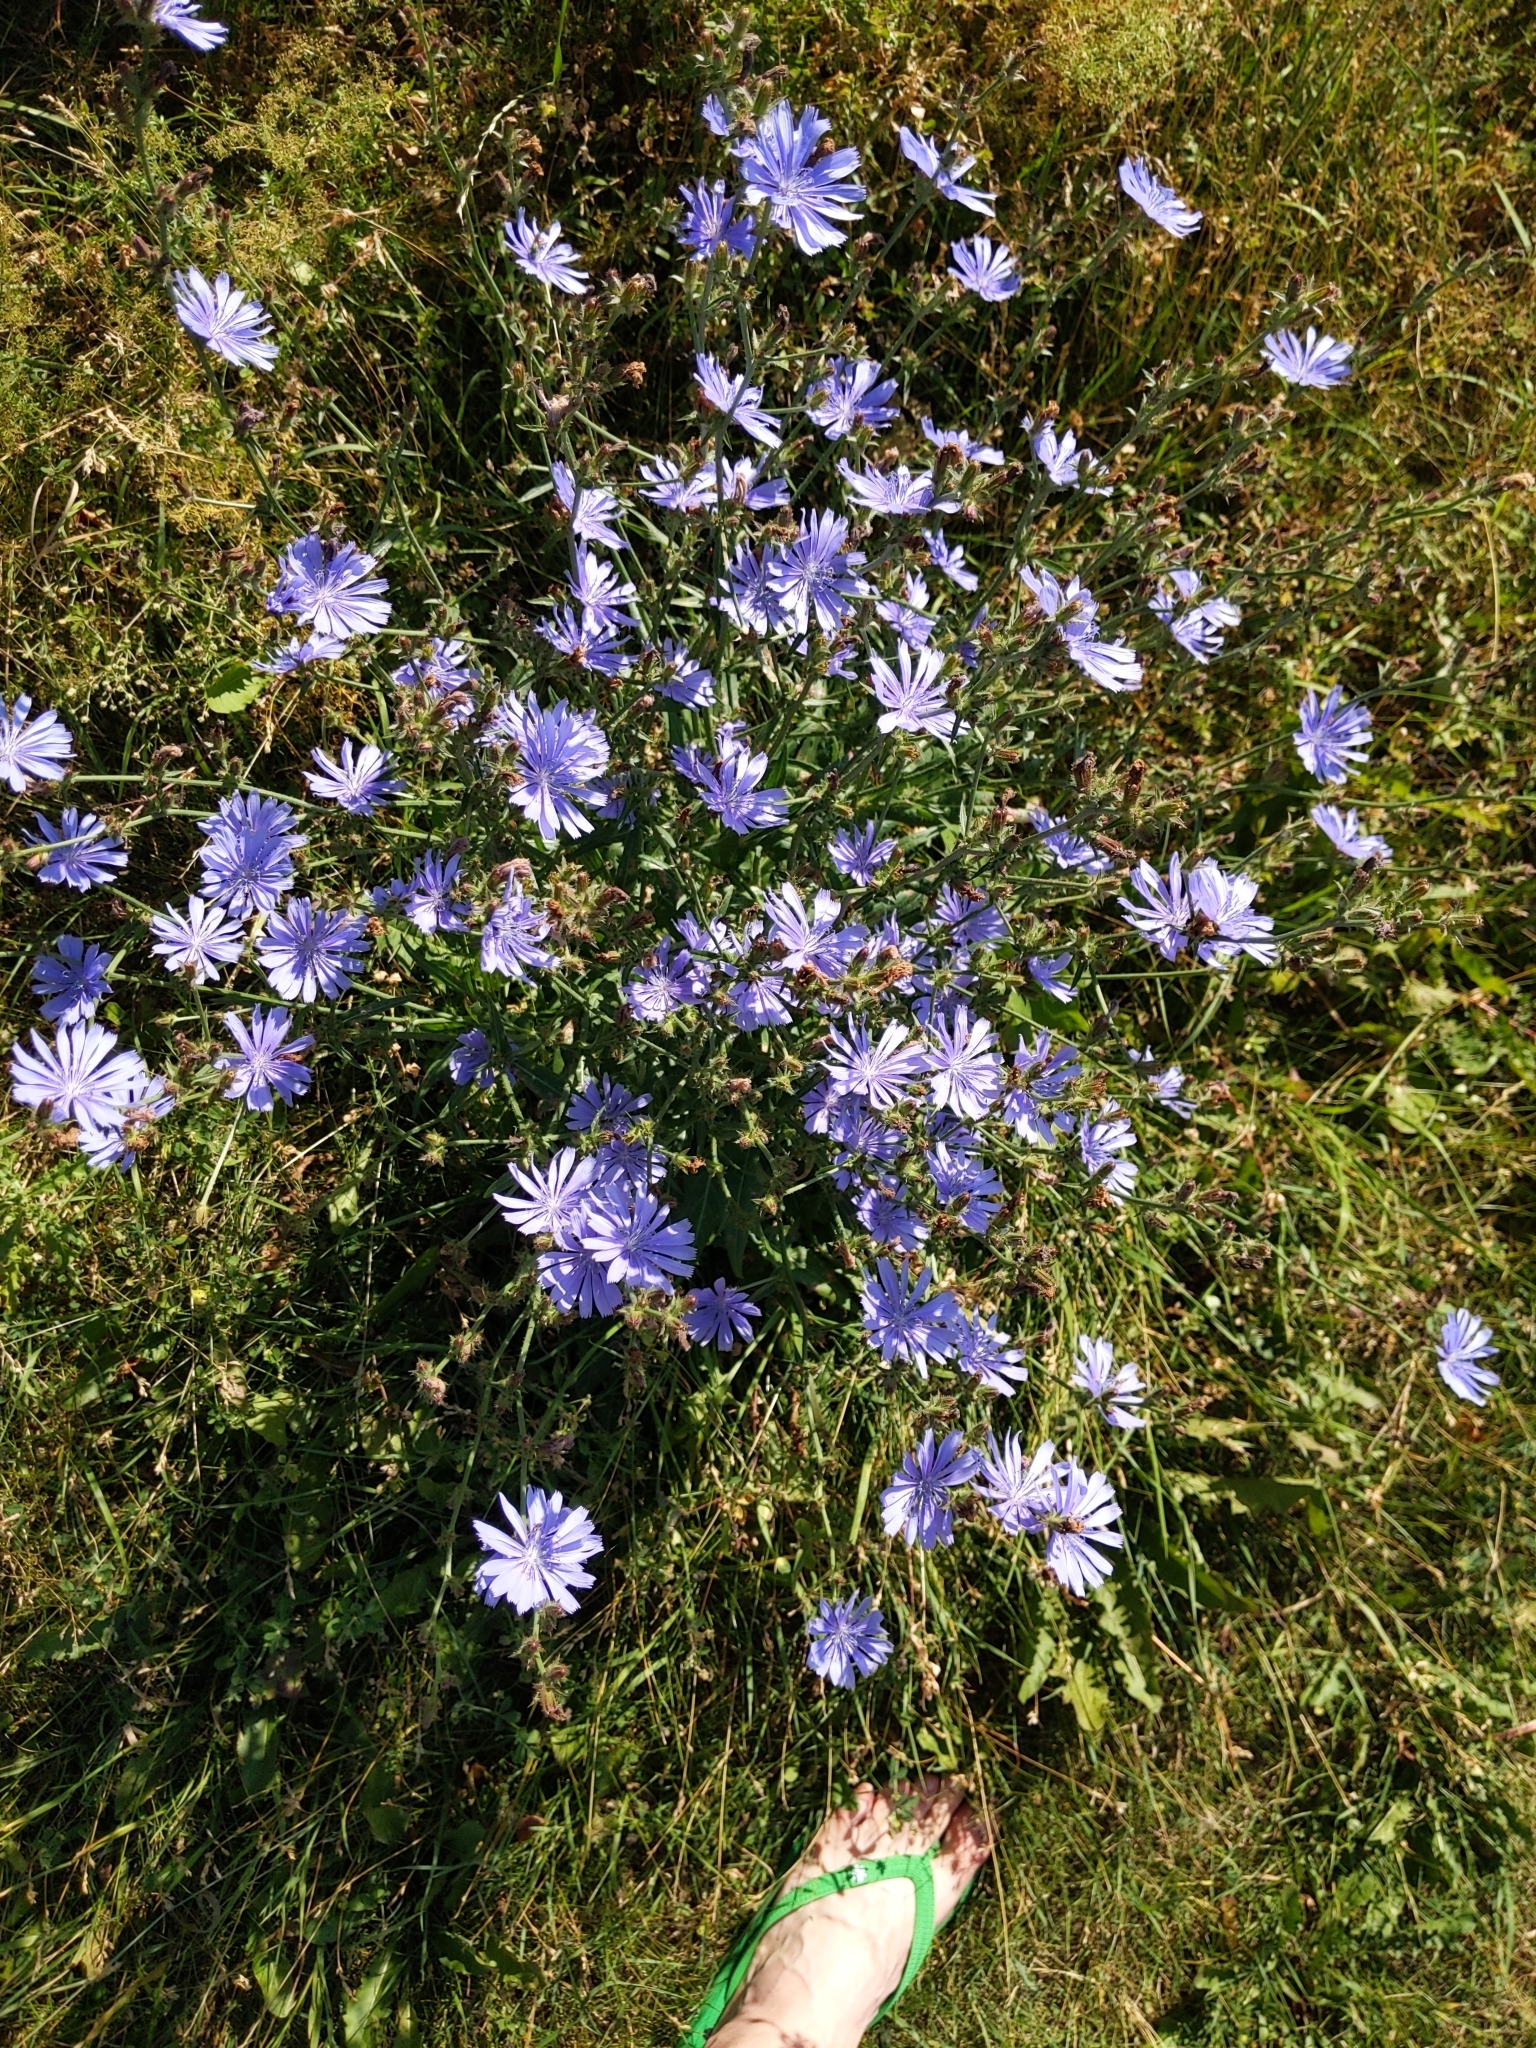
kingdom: Plantae
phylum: Tracheophyta
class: Magnoliopsida
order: Asterales
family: Asteraceae
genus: Cichorium
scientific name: Cichorium intybus
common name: Chicory
